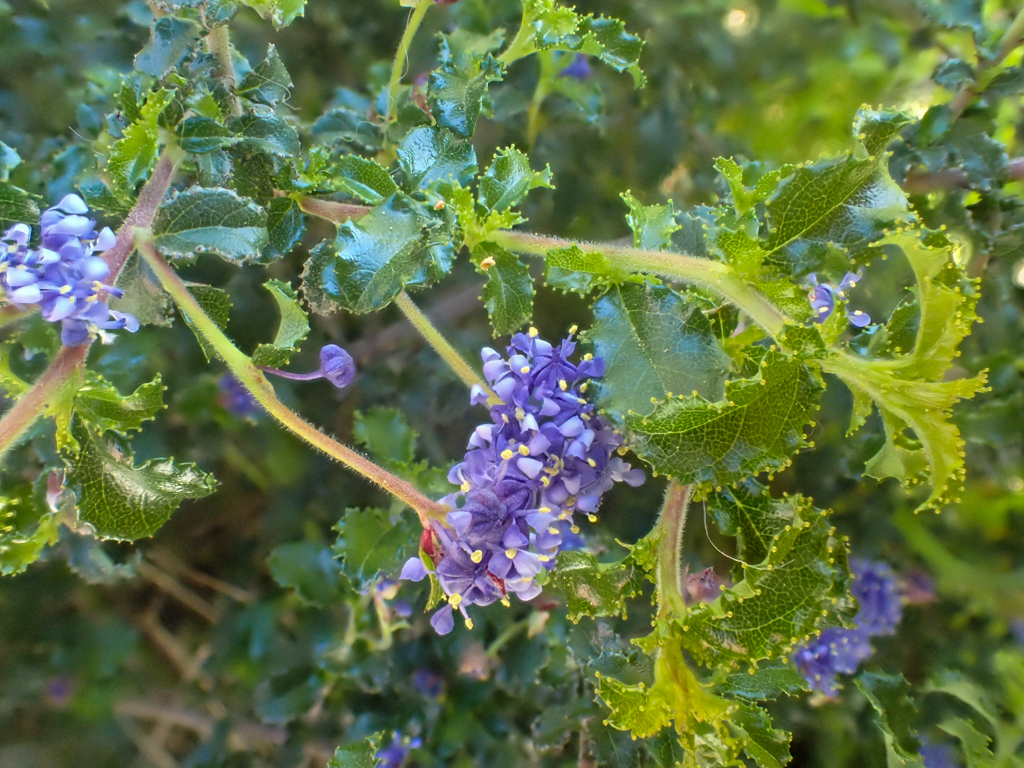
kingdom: Plantae
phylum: Tracheophyta
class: Magnoliopsida
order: Rosales
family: Rhamnaceae
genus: Ceanothus
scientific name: Ceanothus foliosus
